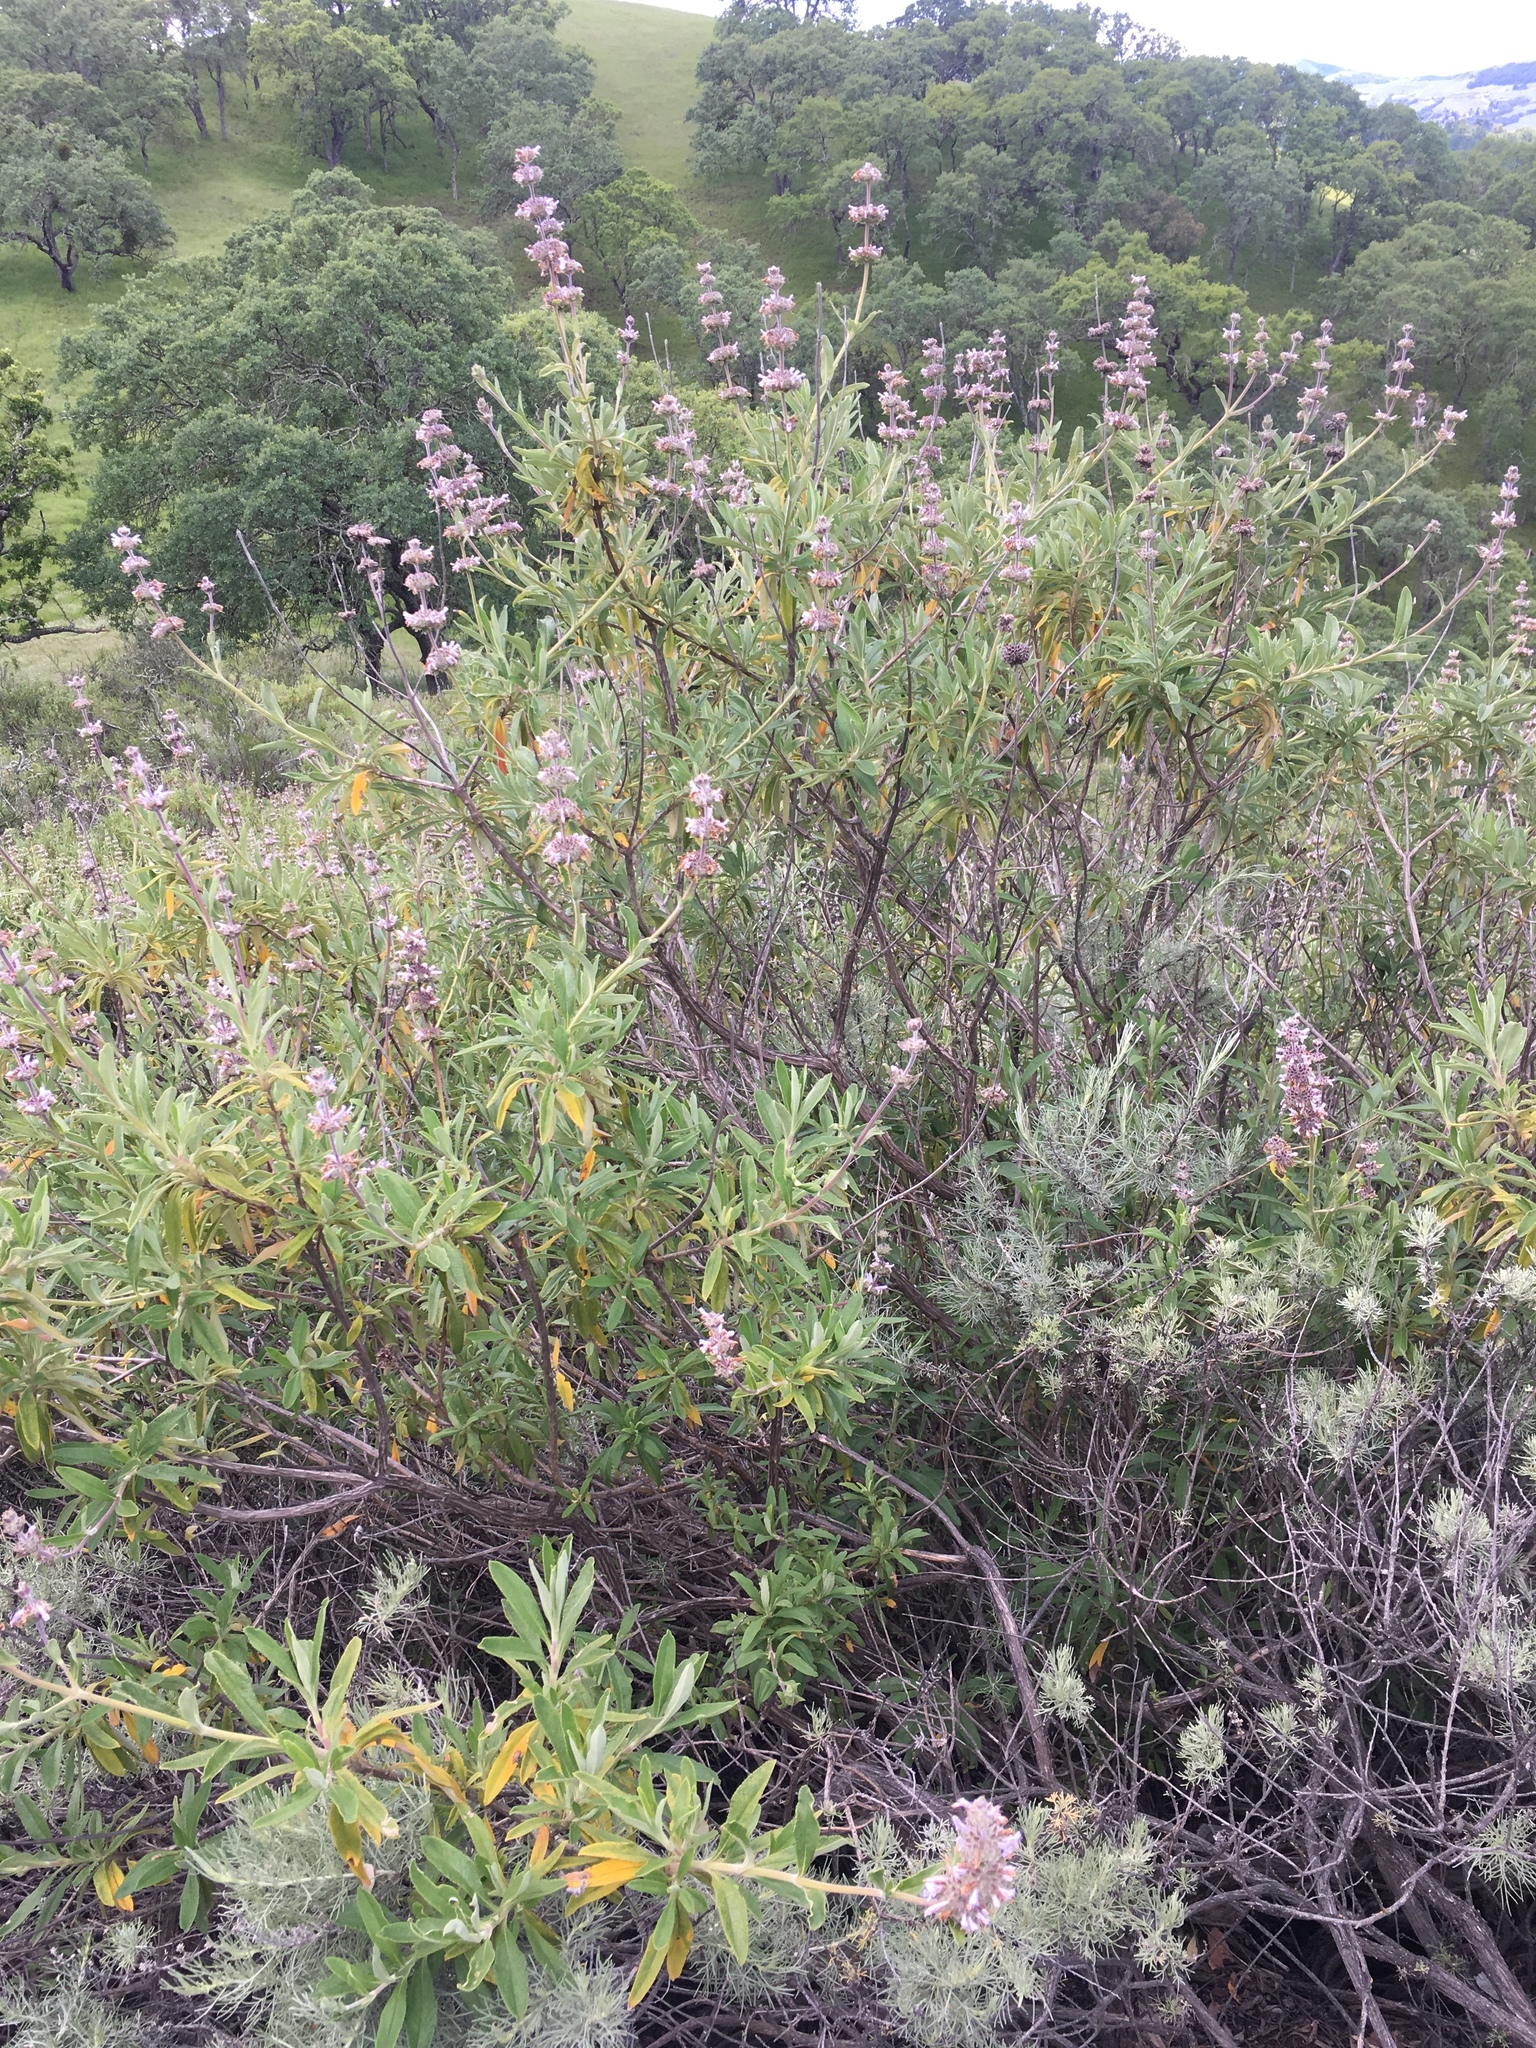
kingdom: Plantae
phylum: Tracheophyta
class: Magnoliopsida
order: Lamiales
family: Lamiaceae
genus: Salvia
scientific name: Salvia mellifera
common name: Black sage
